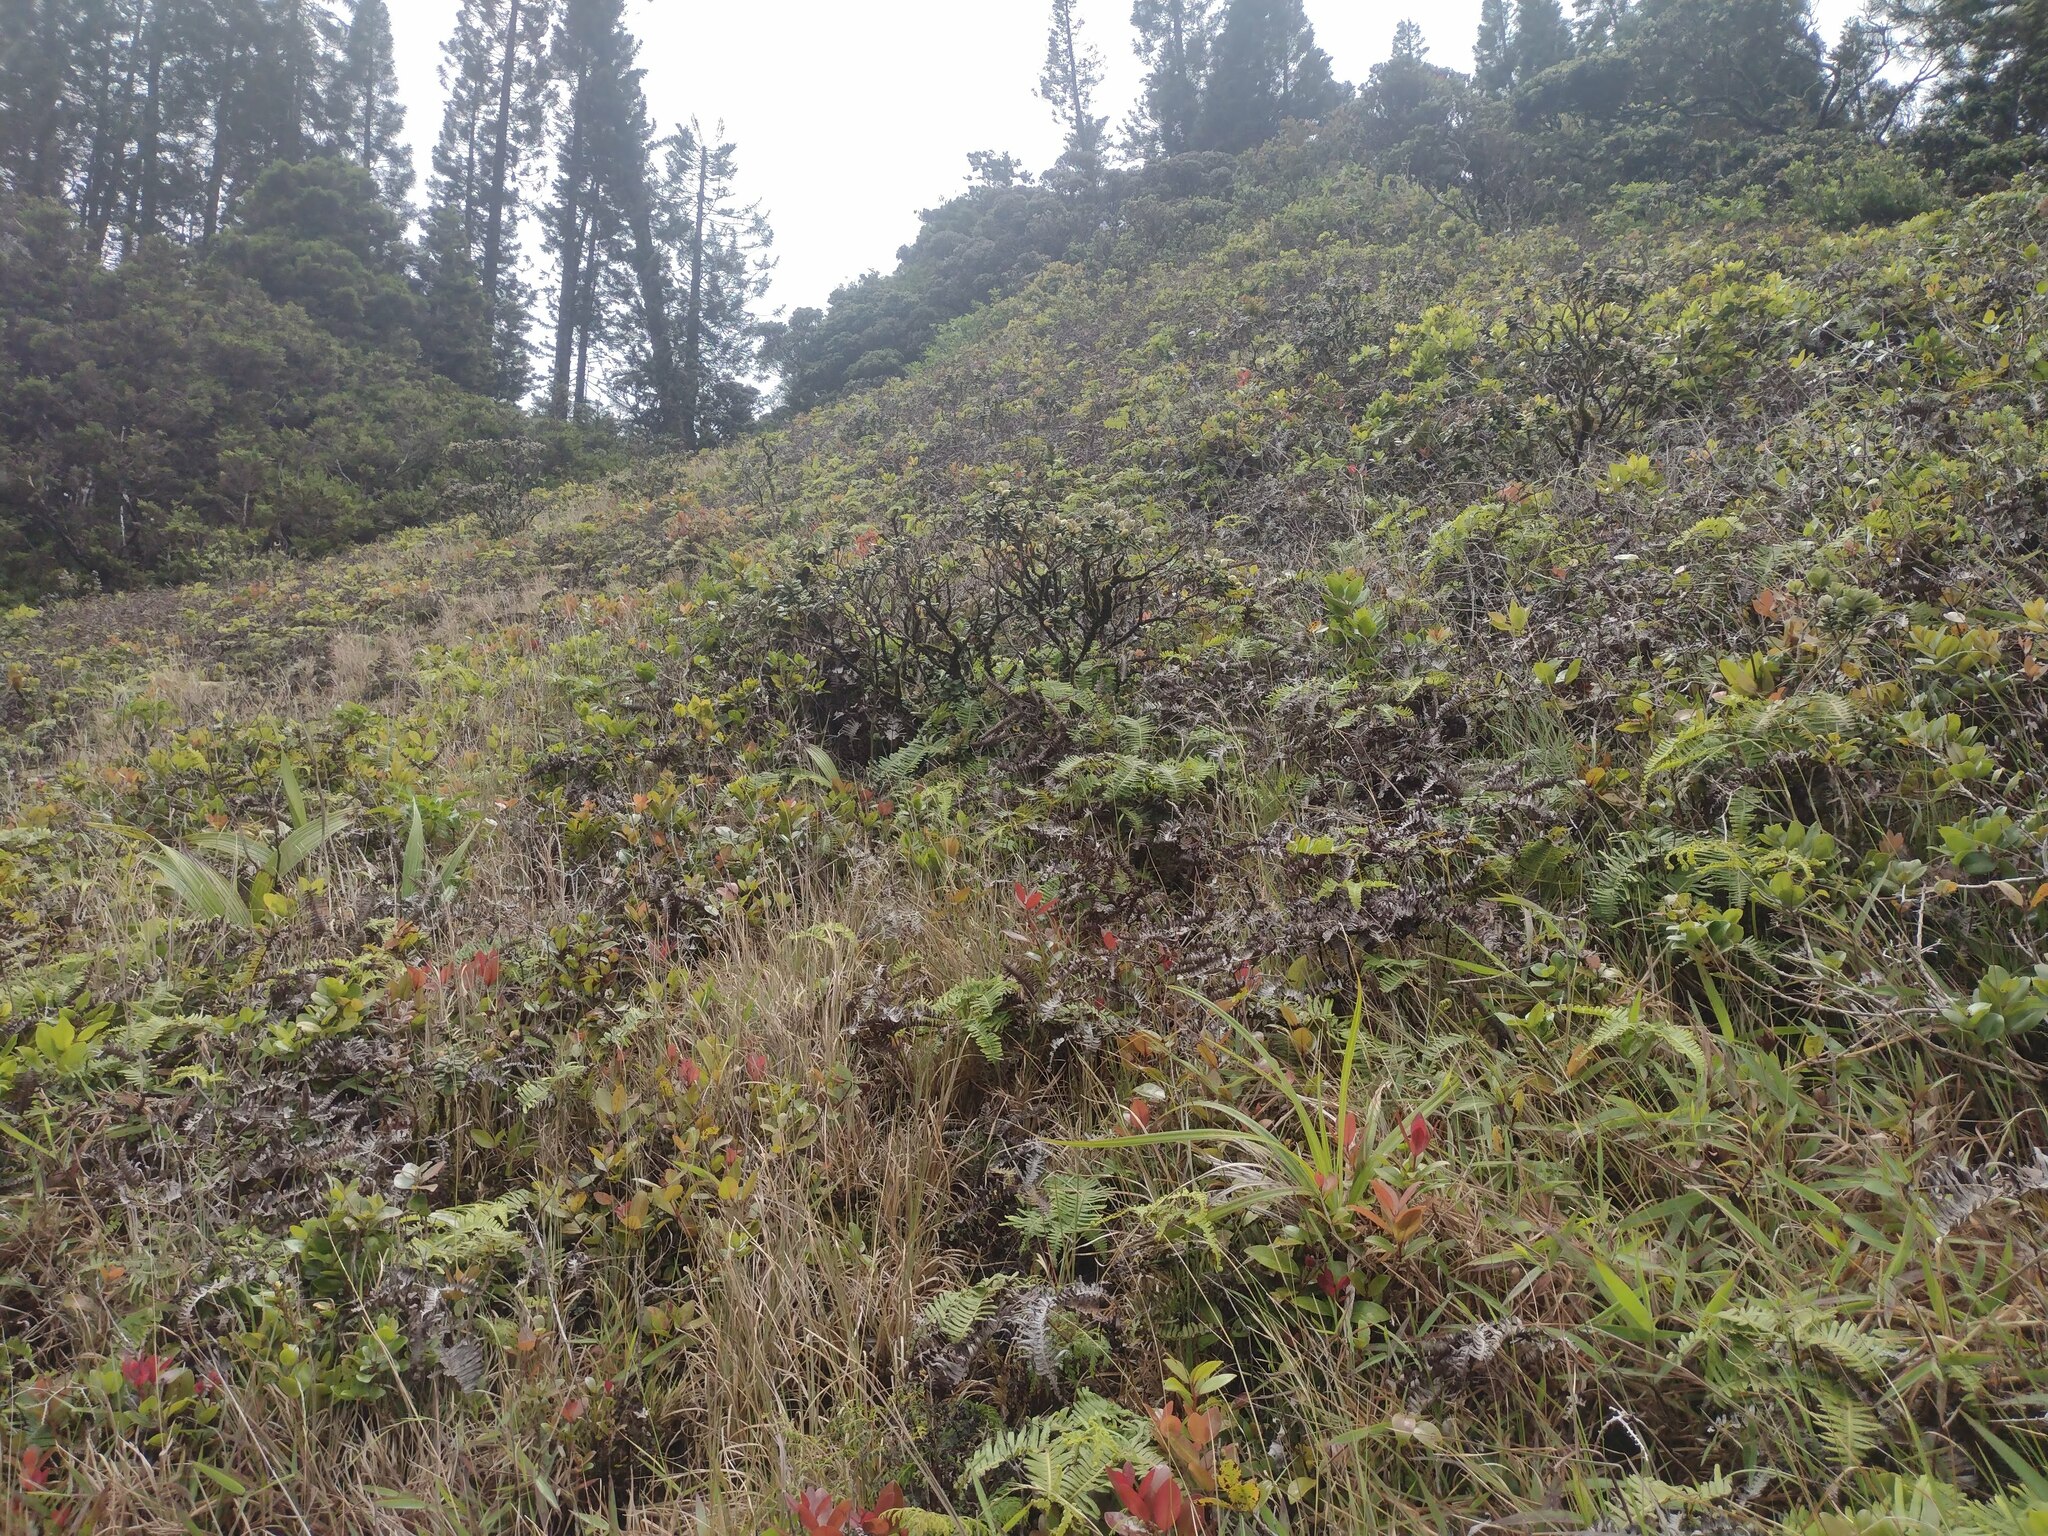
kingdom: Plantae
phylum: Tracheophyta
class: Magnoliopsida
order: Myrtales
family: Myrtaceae
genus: Metrosideros
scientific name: Metrosideros polymorpha
